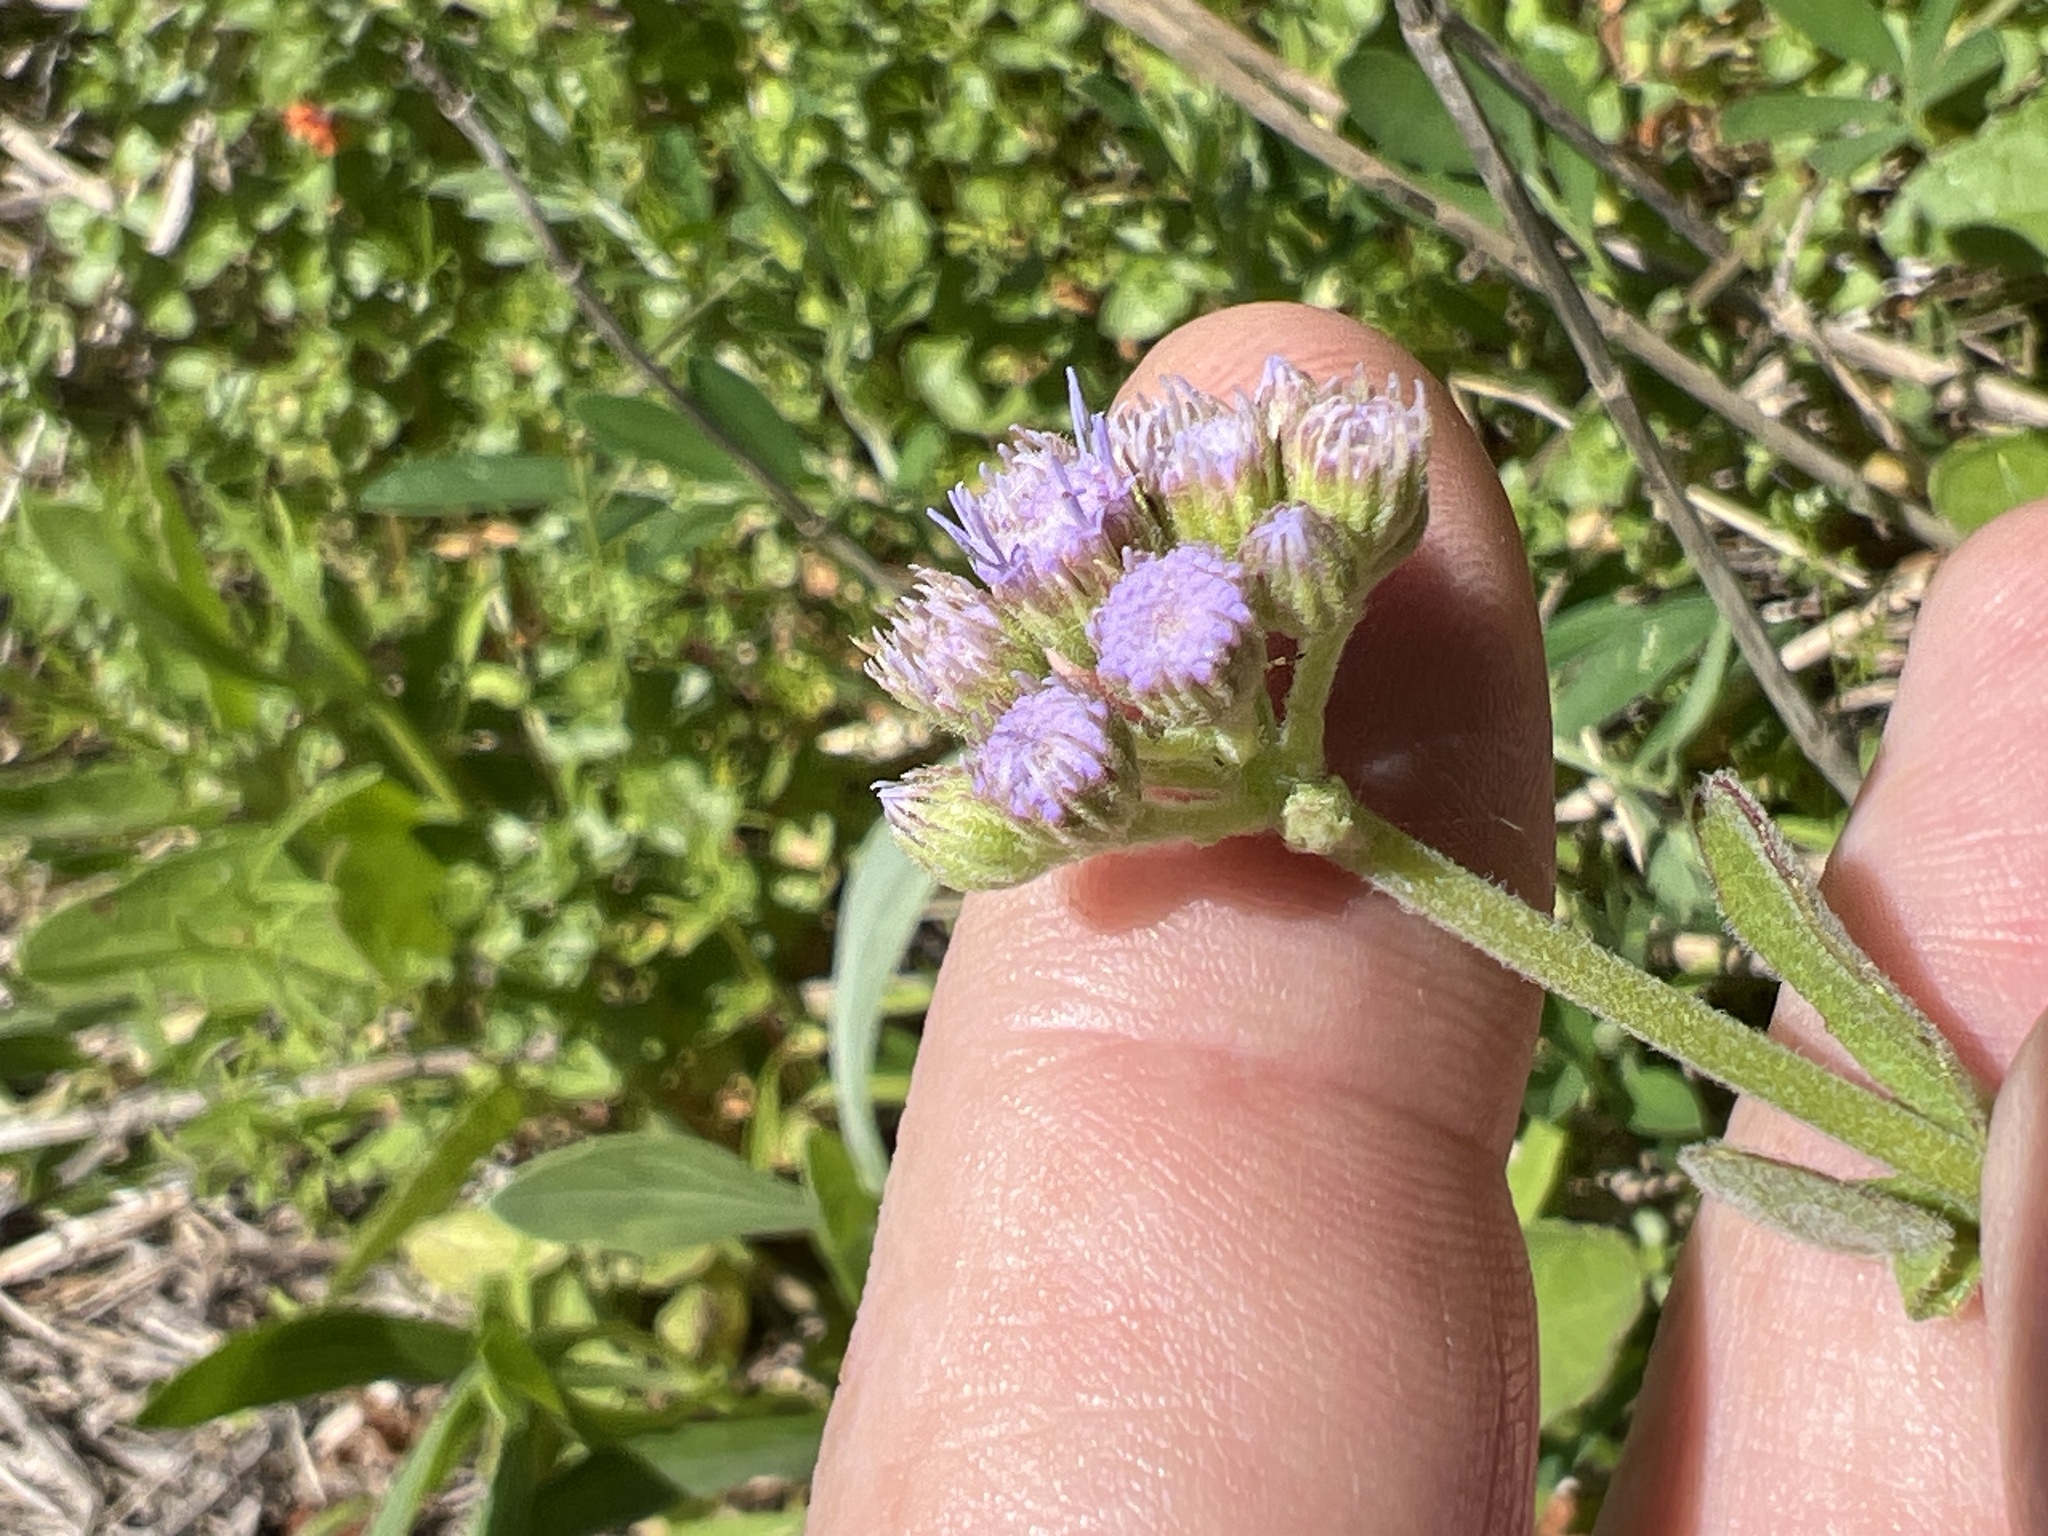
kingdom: Plantae
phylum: Tracheophyta
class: Magnoliopsida
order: Asterales
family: Asteraceae
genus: Conoclinium
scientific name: Conoclinium betonicifolium
